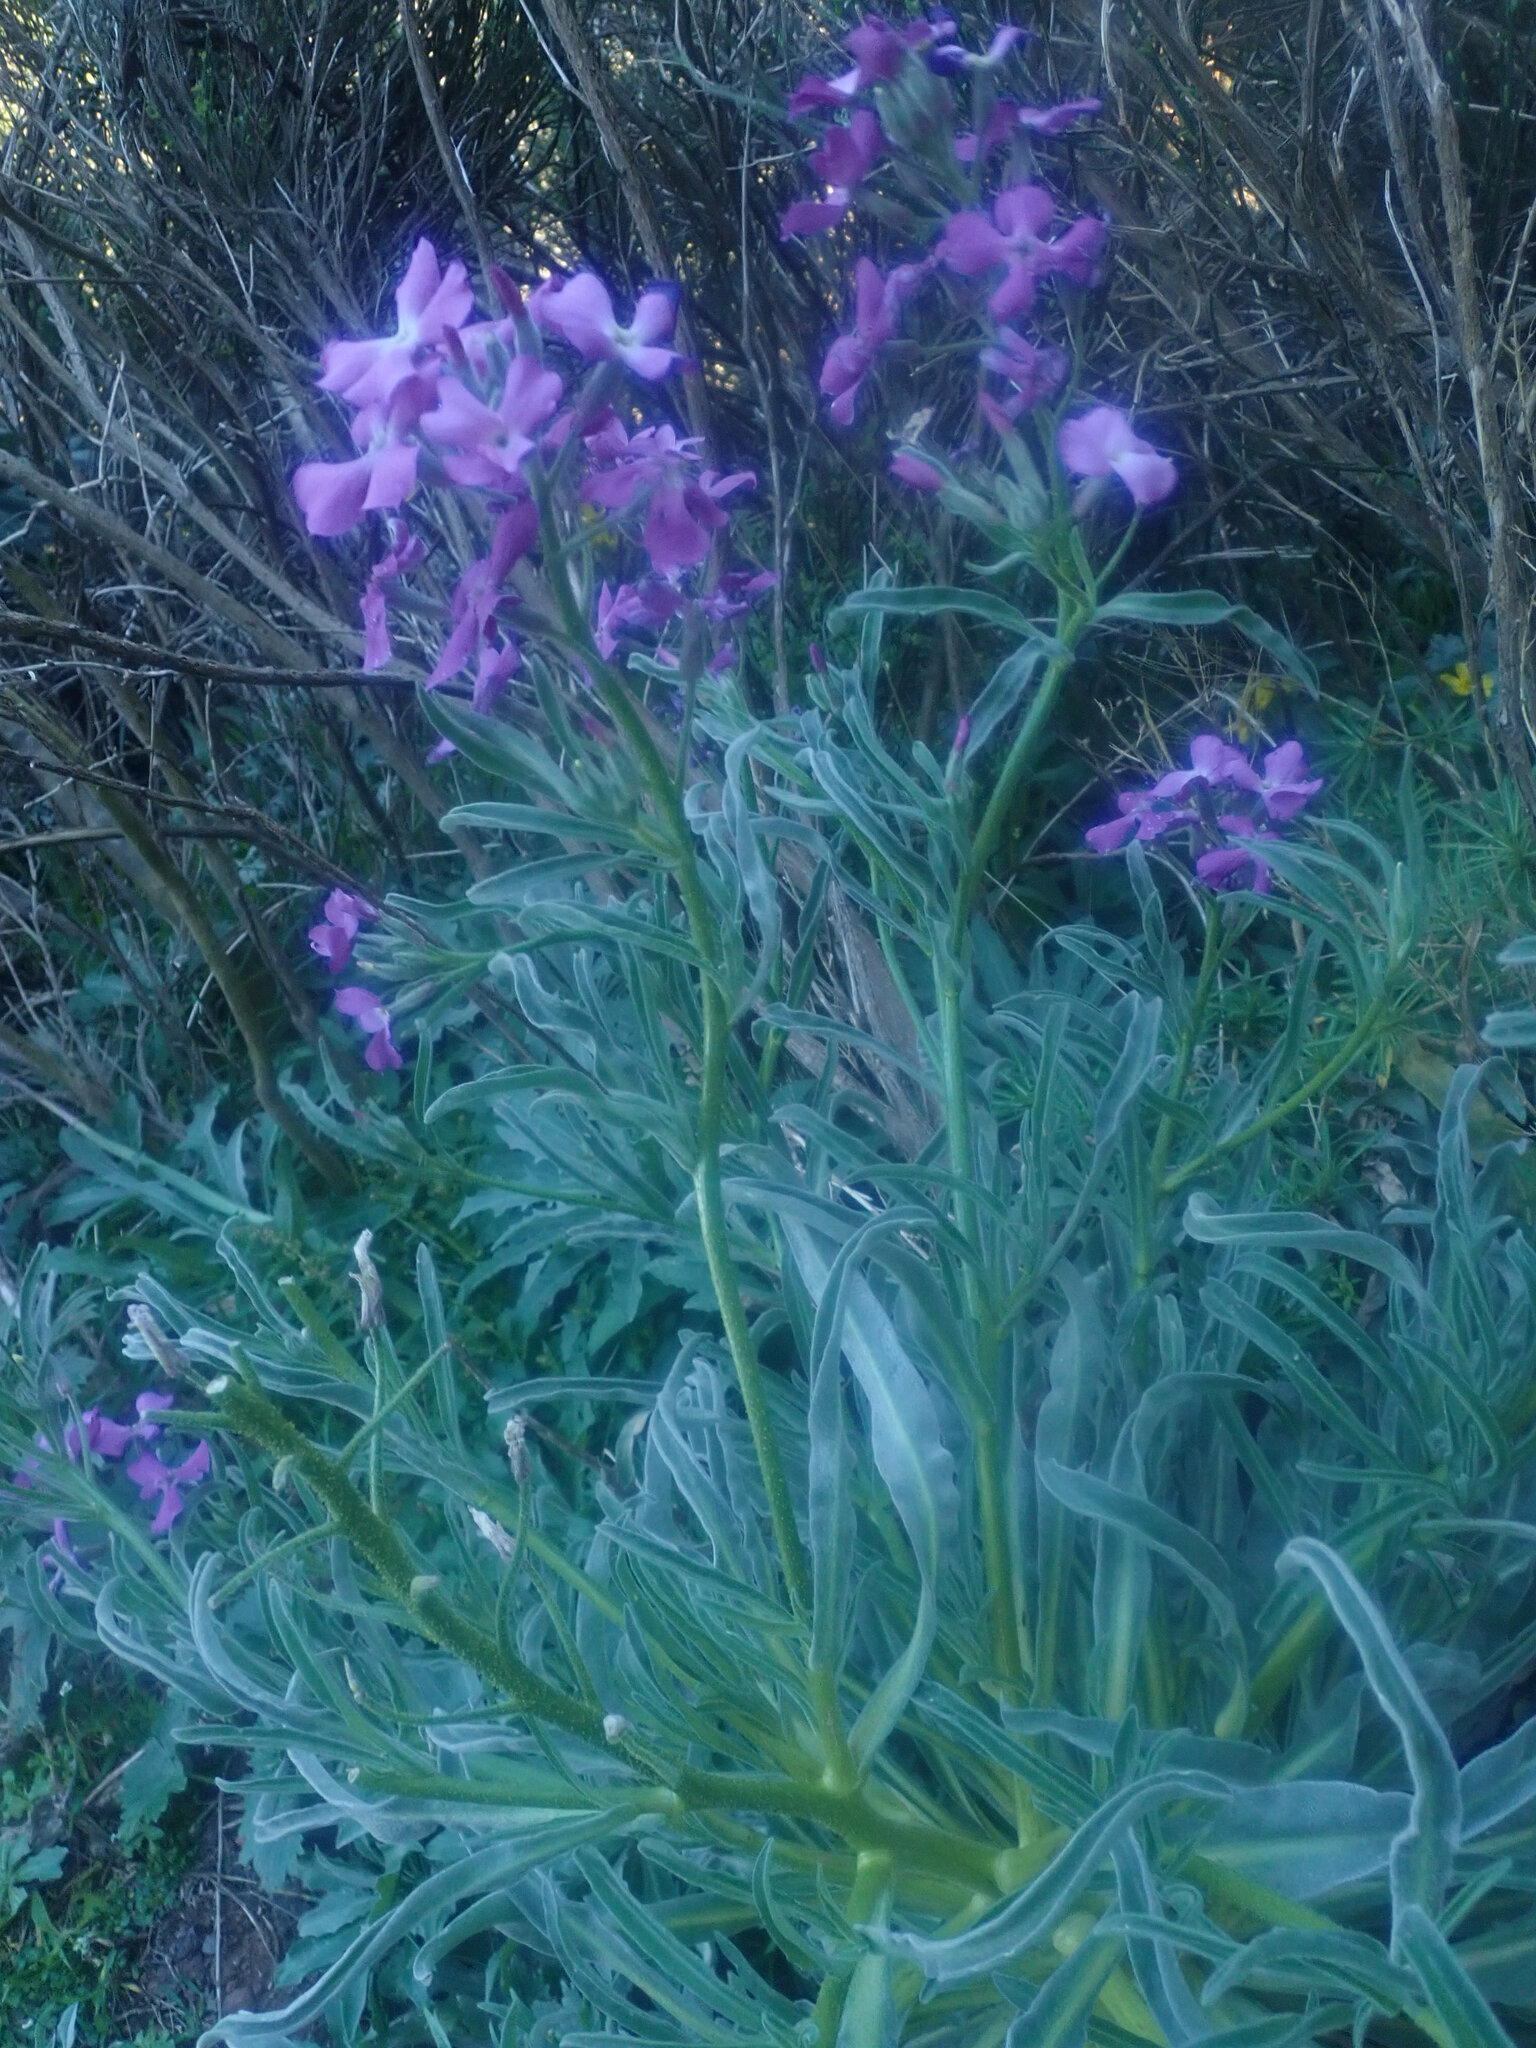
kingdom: Plantae
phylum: Tracheophyta
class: Magnoliopsida
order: Brassicales
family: Brassicaceae
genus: Matthiola
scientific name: Matthiola maderensis
